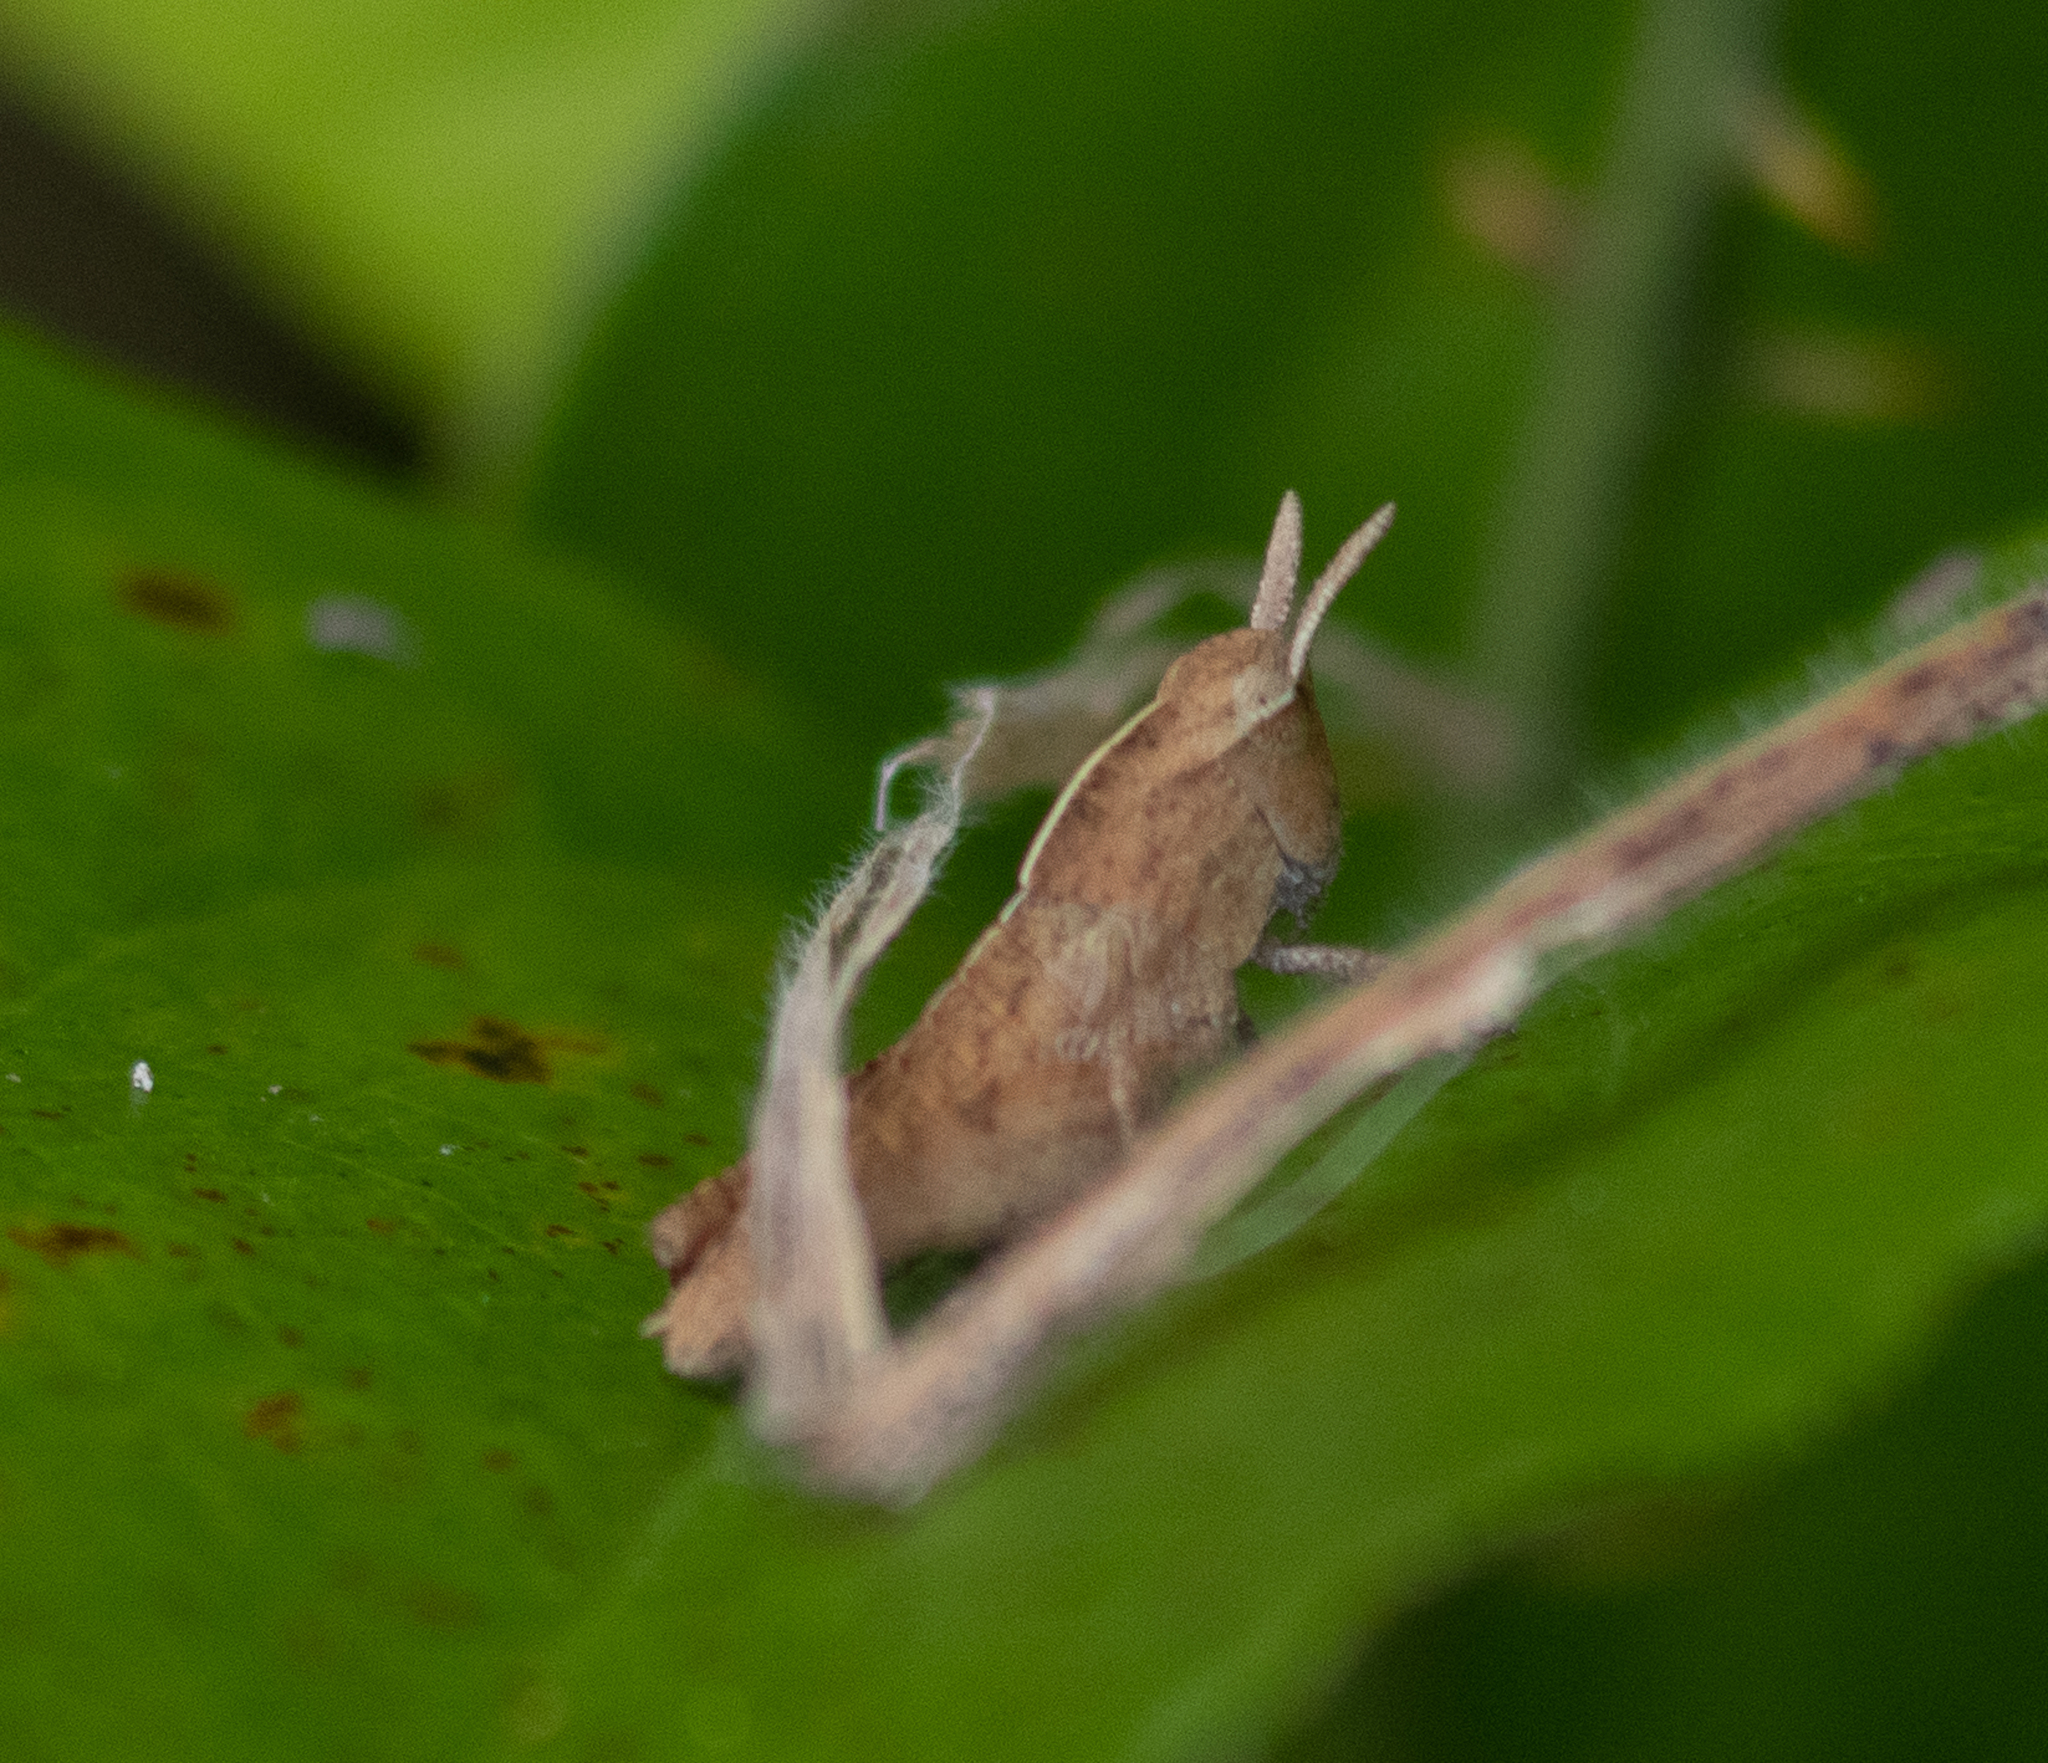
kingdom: Animalia
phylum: Arthropoda
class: Insecta
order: Orthoptera
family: Acrididae
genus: Chortophaga
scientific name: Chortophaga viridifasciata
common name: Green-striped grasshopper
